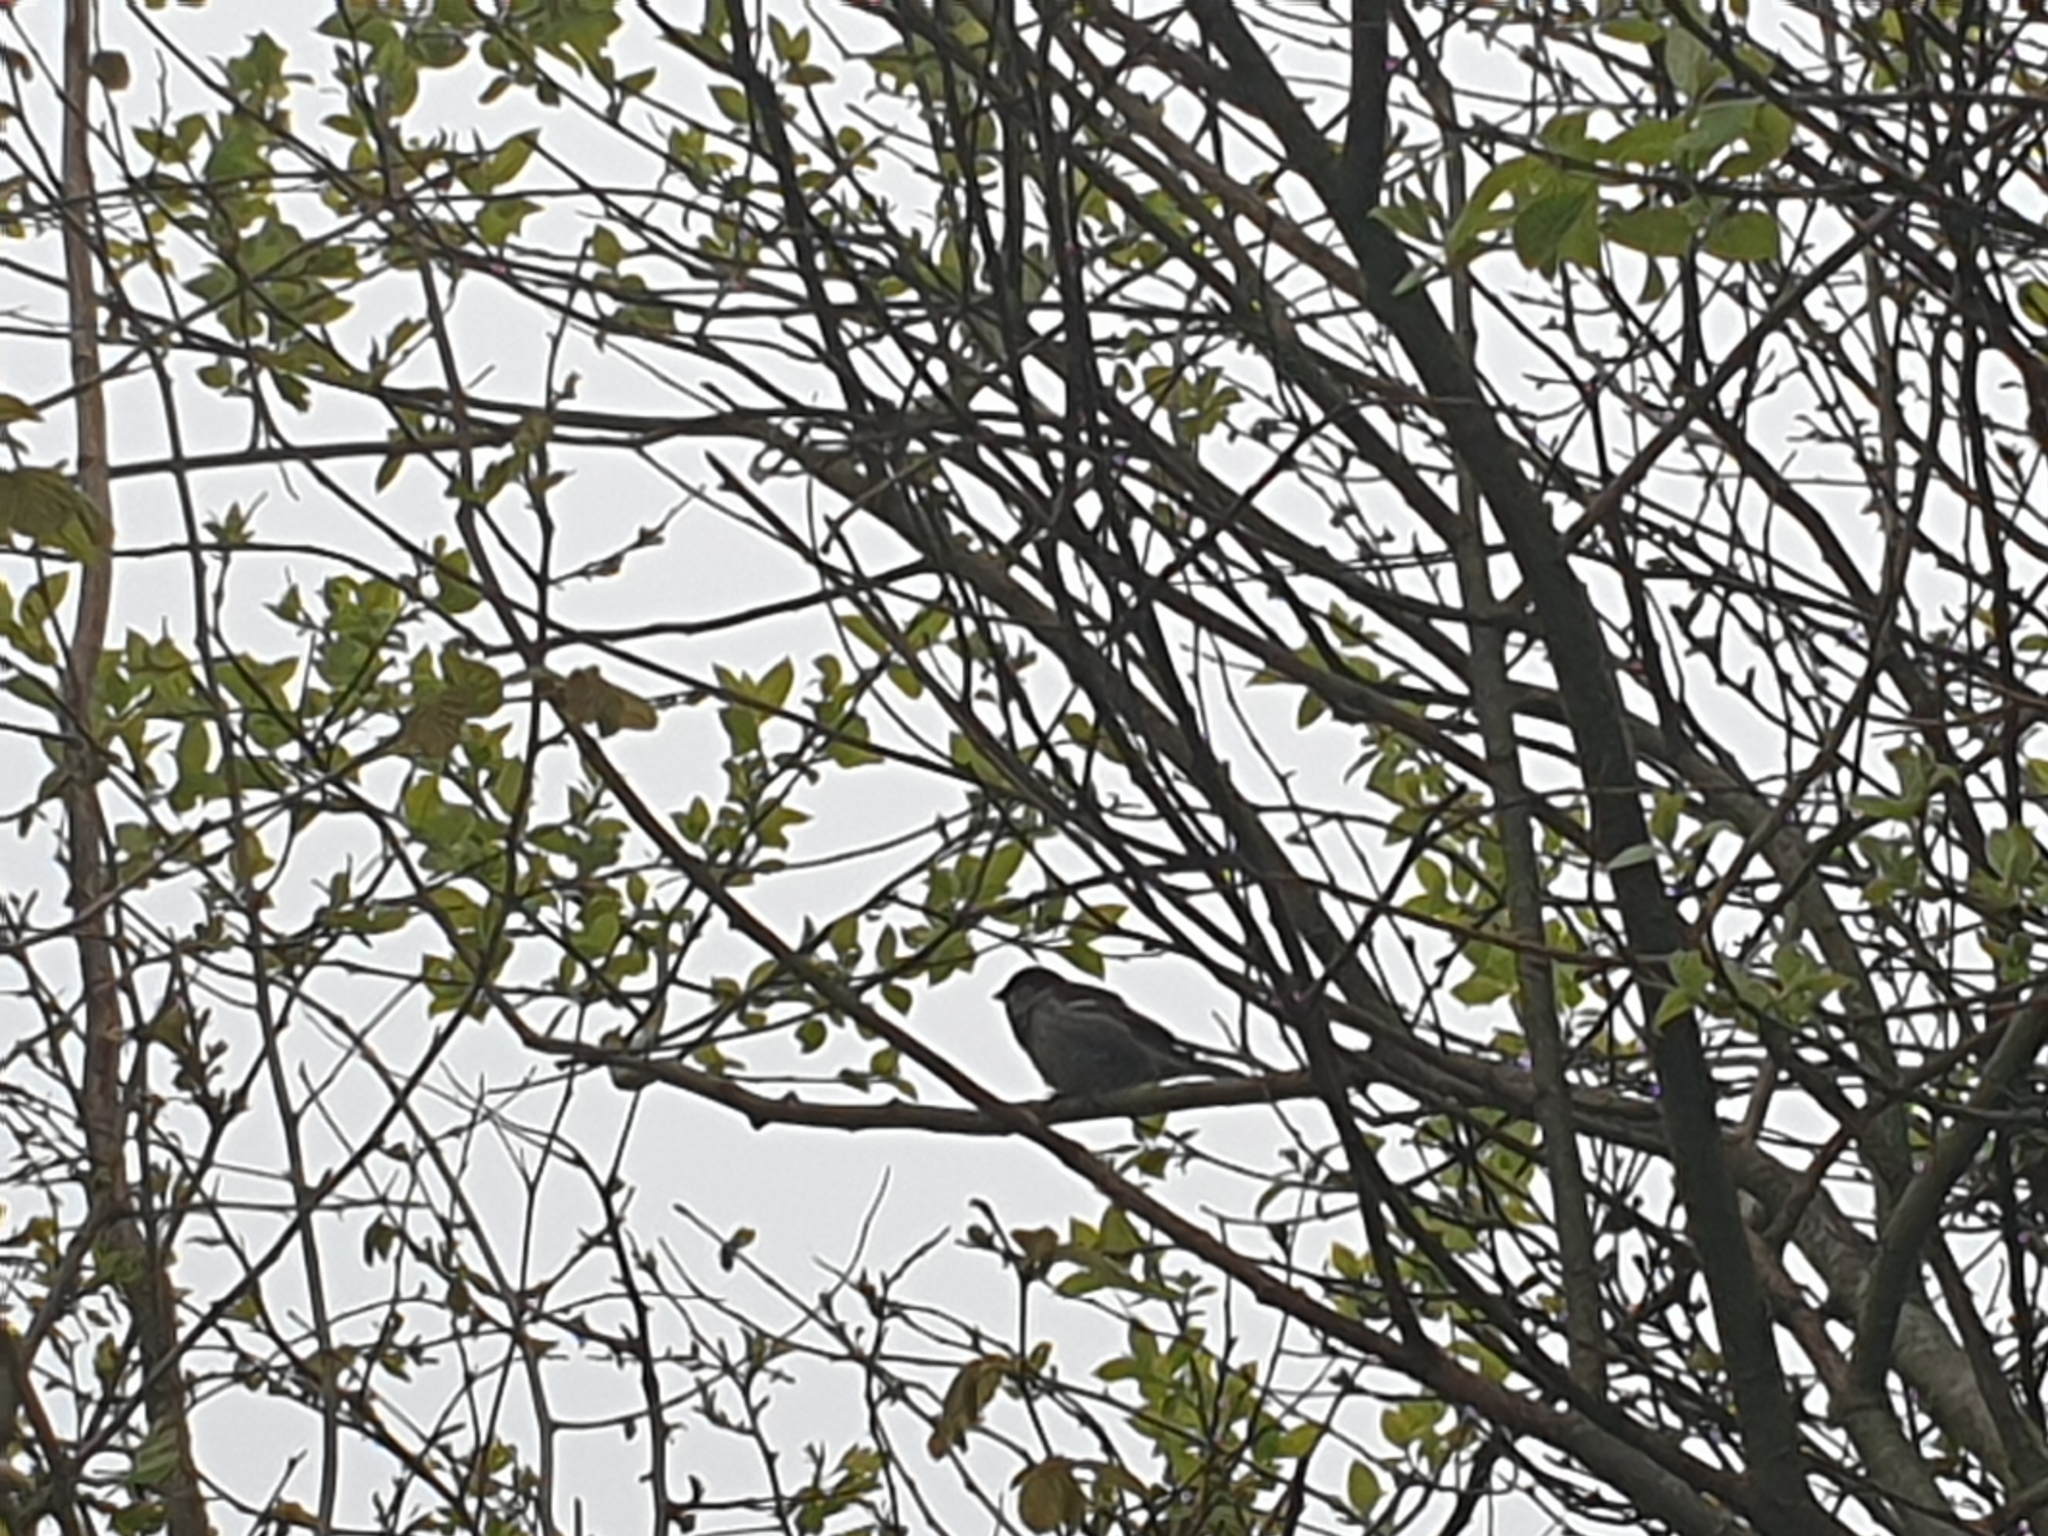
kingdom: Animalia
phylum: Chordata
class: Aves
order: Passeriformes
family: Passeridae
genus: Passer
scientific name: Passer domesticus
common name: House sparrow
